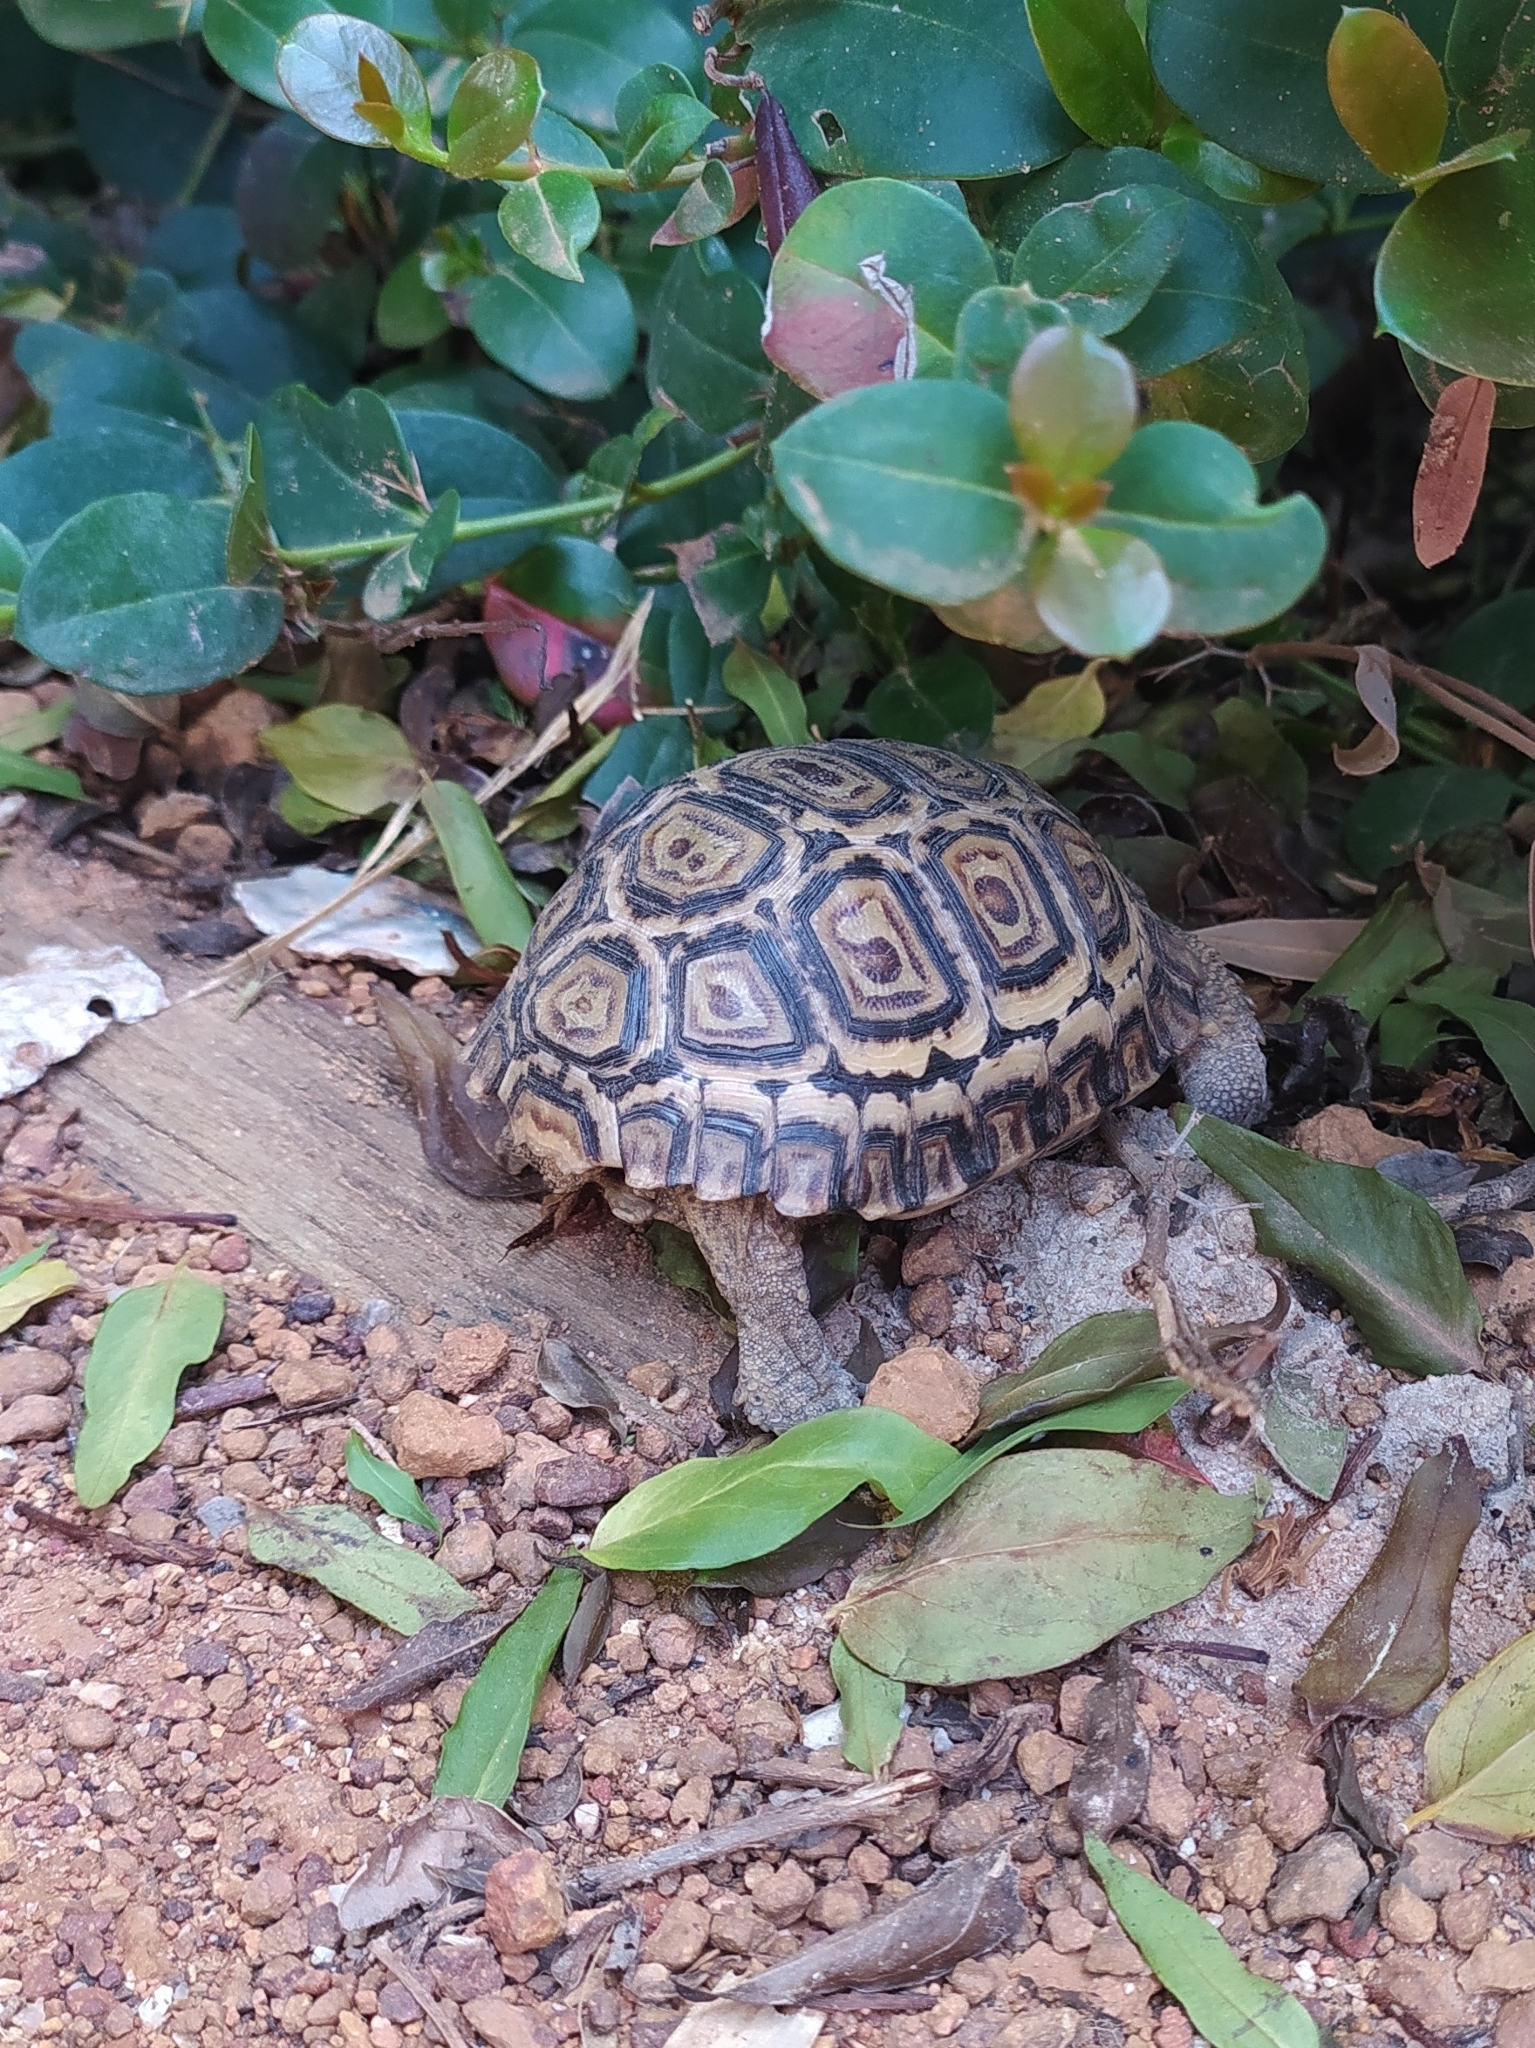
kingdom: Animalia
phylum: Chordata
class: Testudines
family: Testudinidae
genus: Stigmochelys
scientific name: Stigmochelys pardalis
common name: Leopard tortoise
